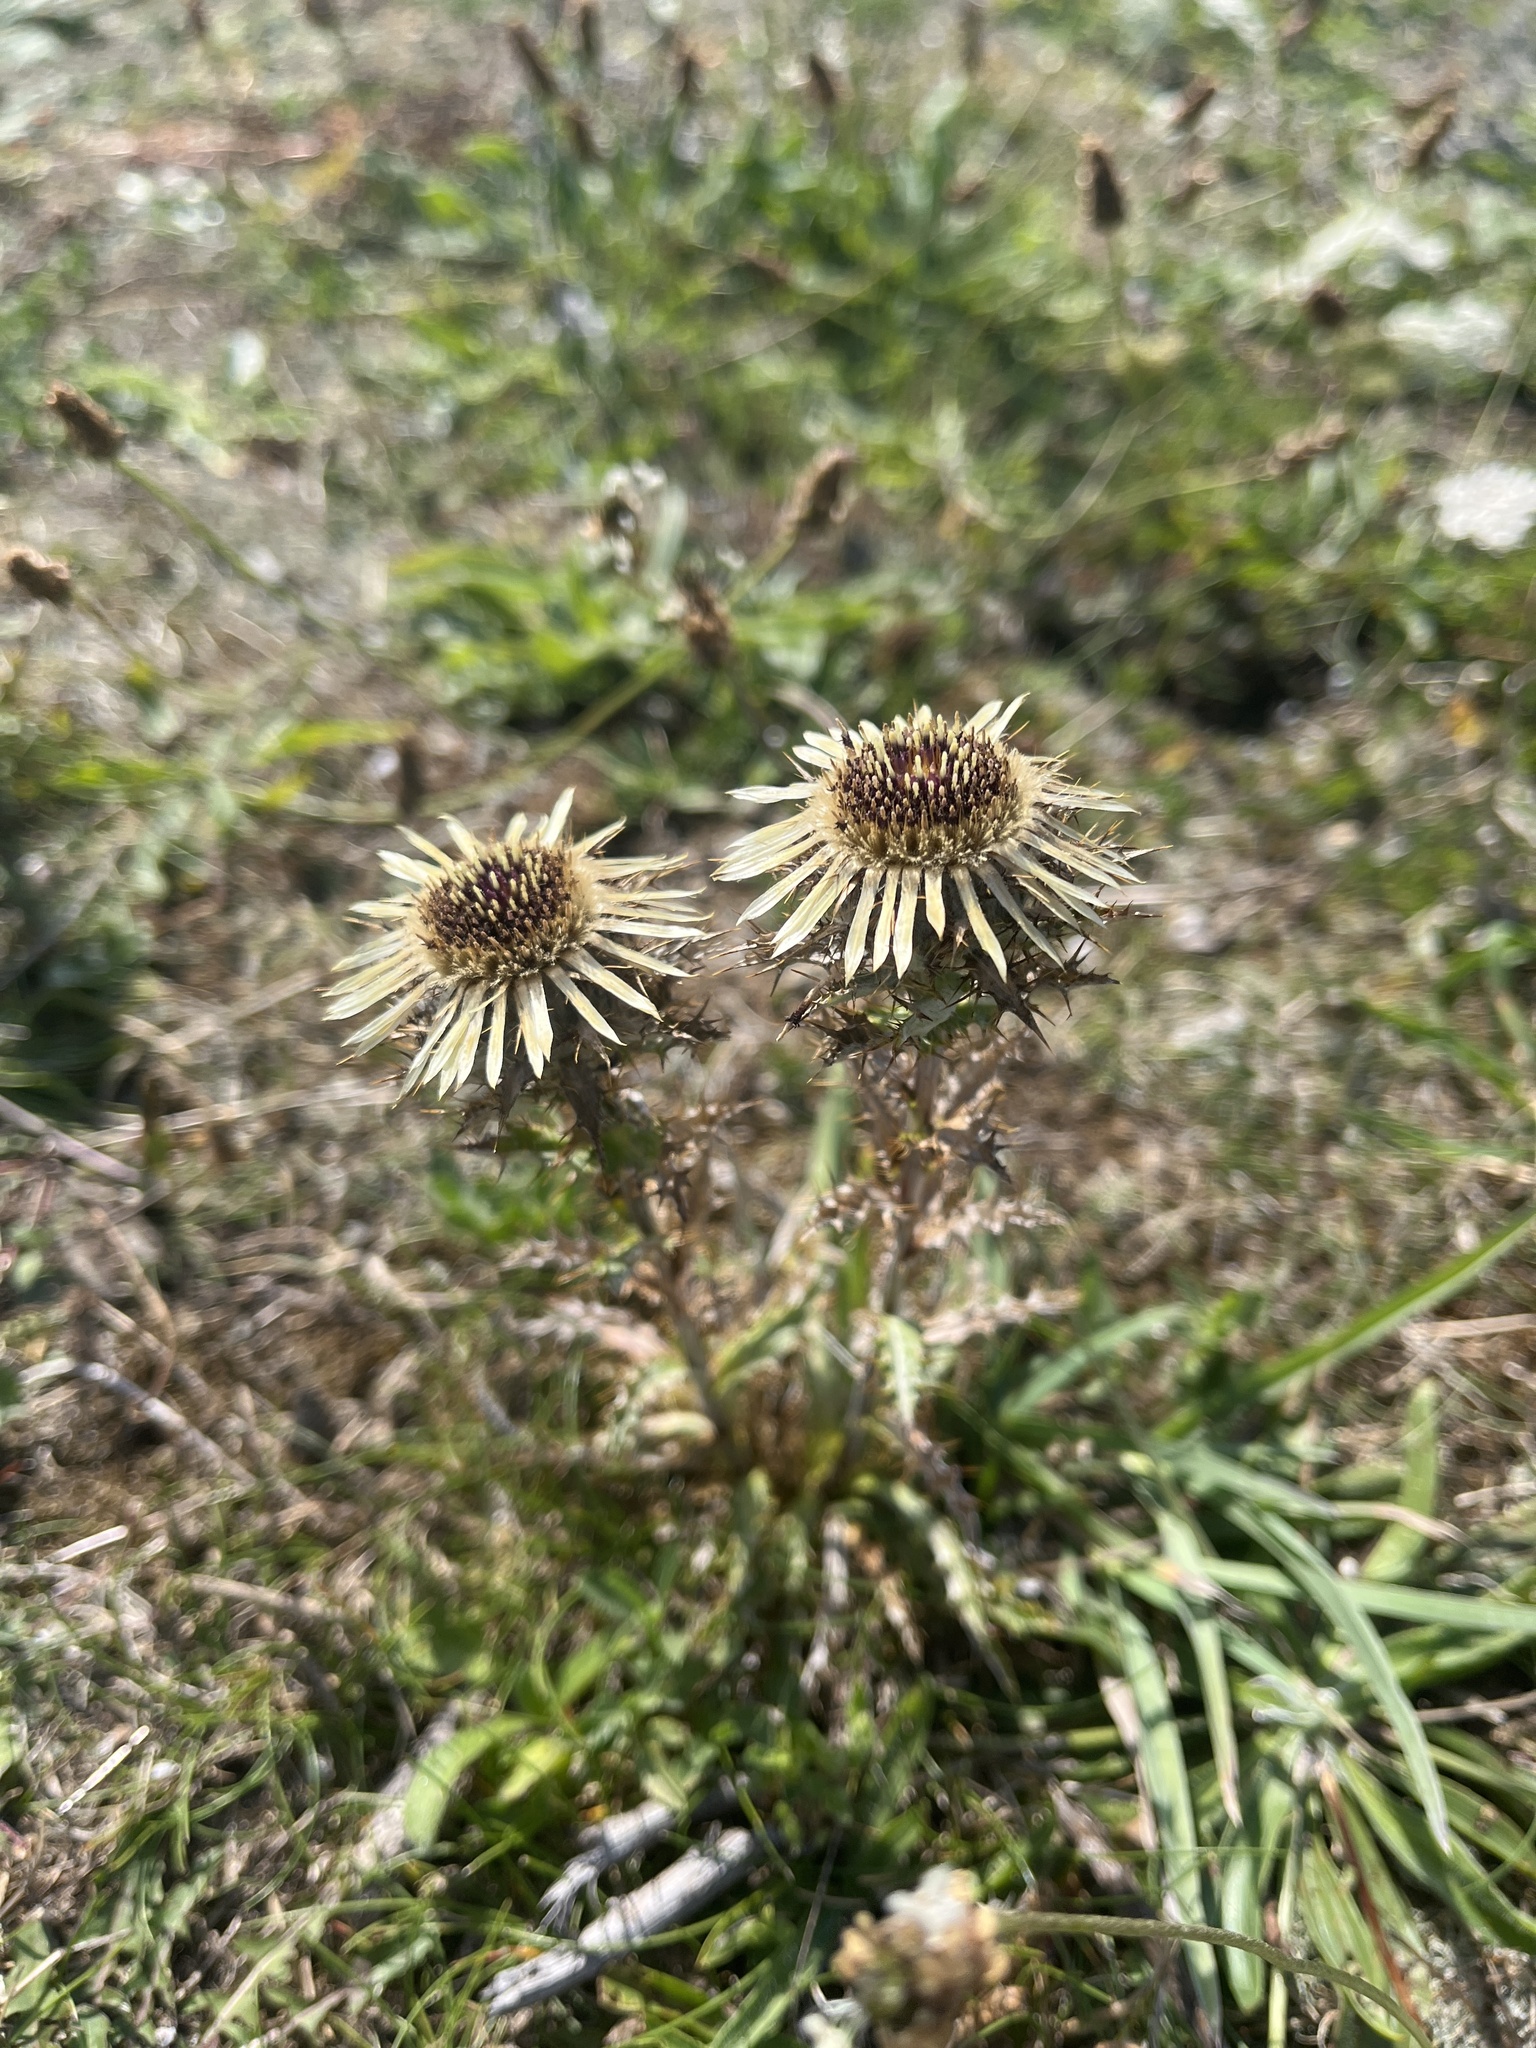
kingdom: Plantae
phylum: Tracheophyta
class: Magnoliopsida
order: Asterales
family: Asteraceae
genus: Carlina
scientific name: Carlina vulgaris
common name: Carline thistle
